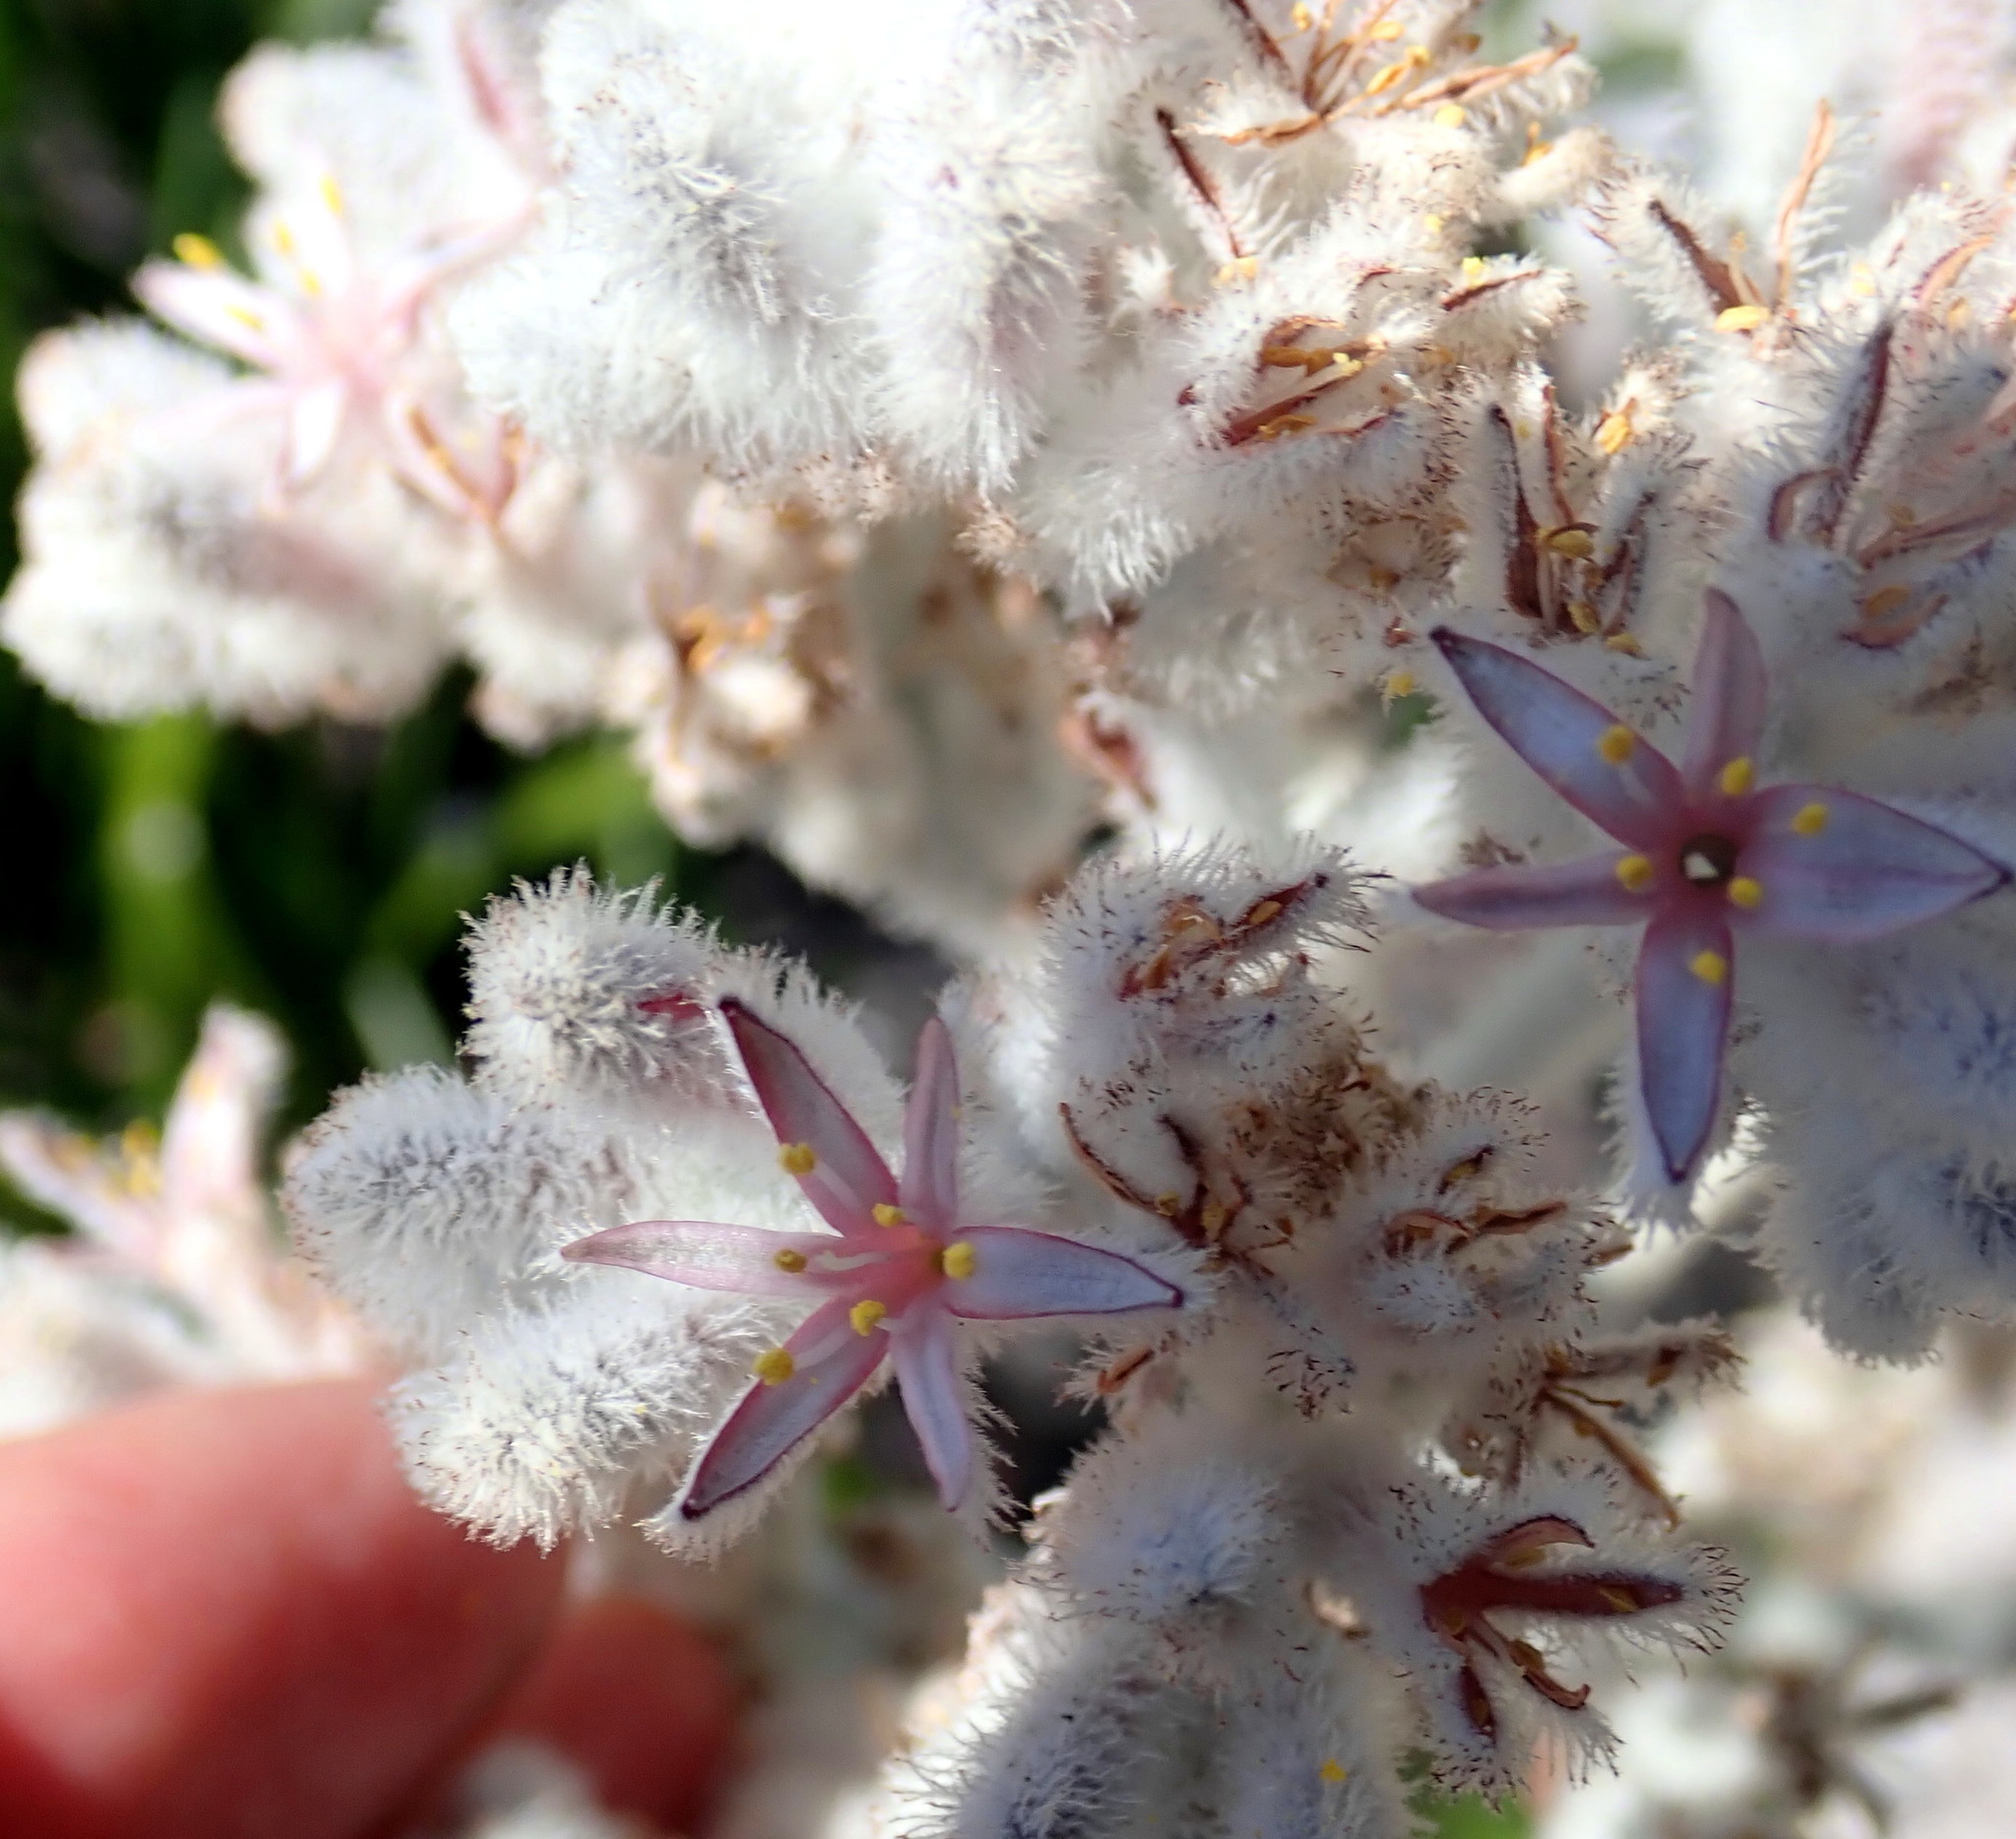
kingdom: Plantae
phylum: Tracheophyta
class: Liliopsida
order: Asparagales
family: Lanariaceae
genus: Lanaria
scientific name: Lanaria lanata
